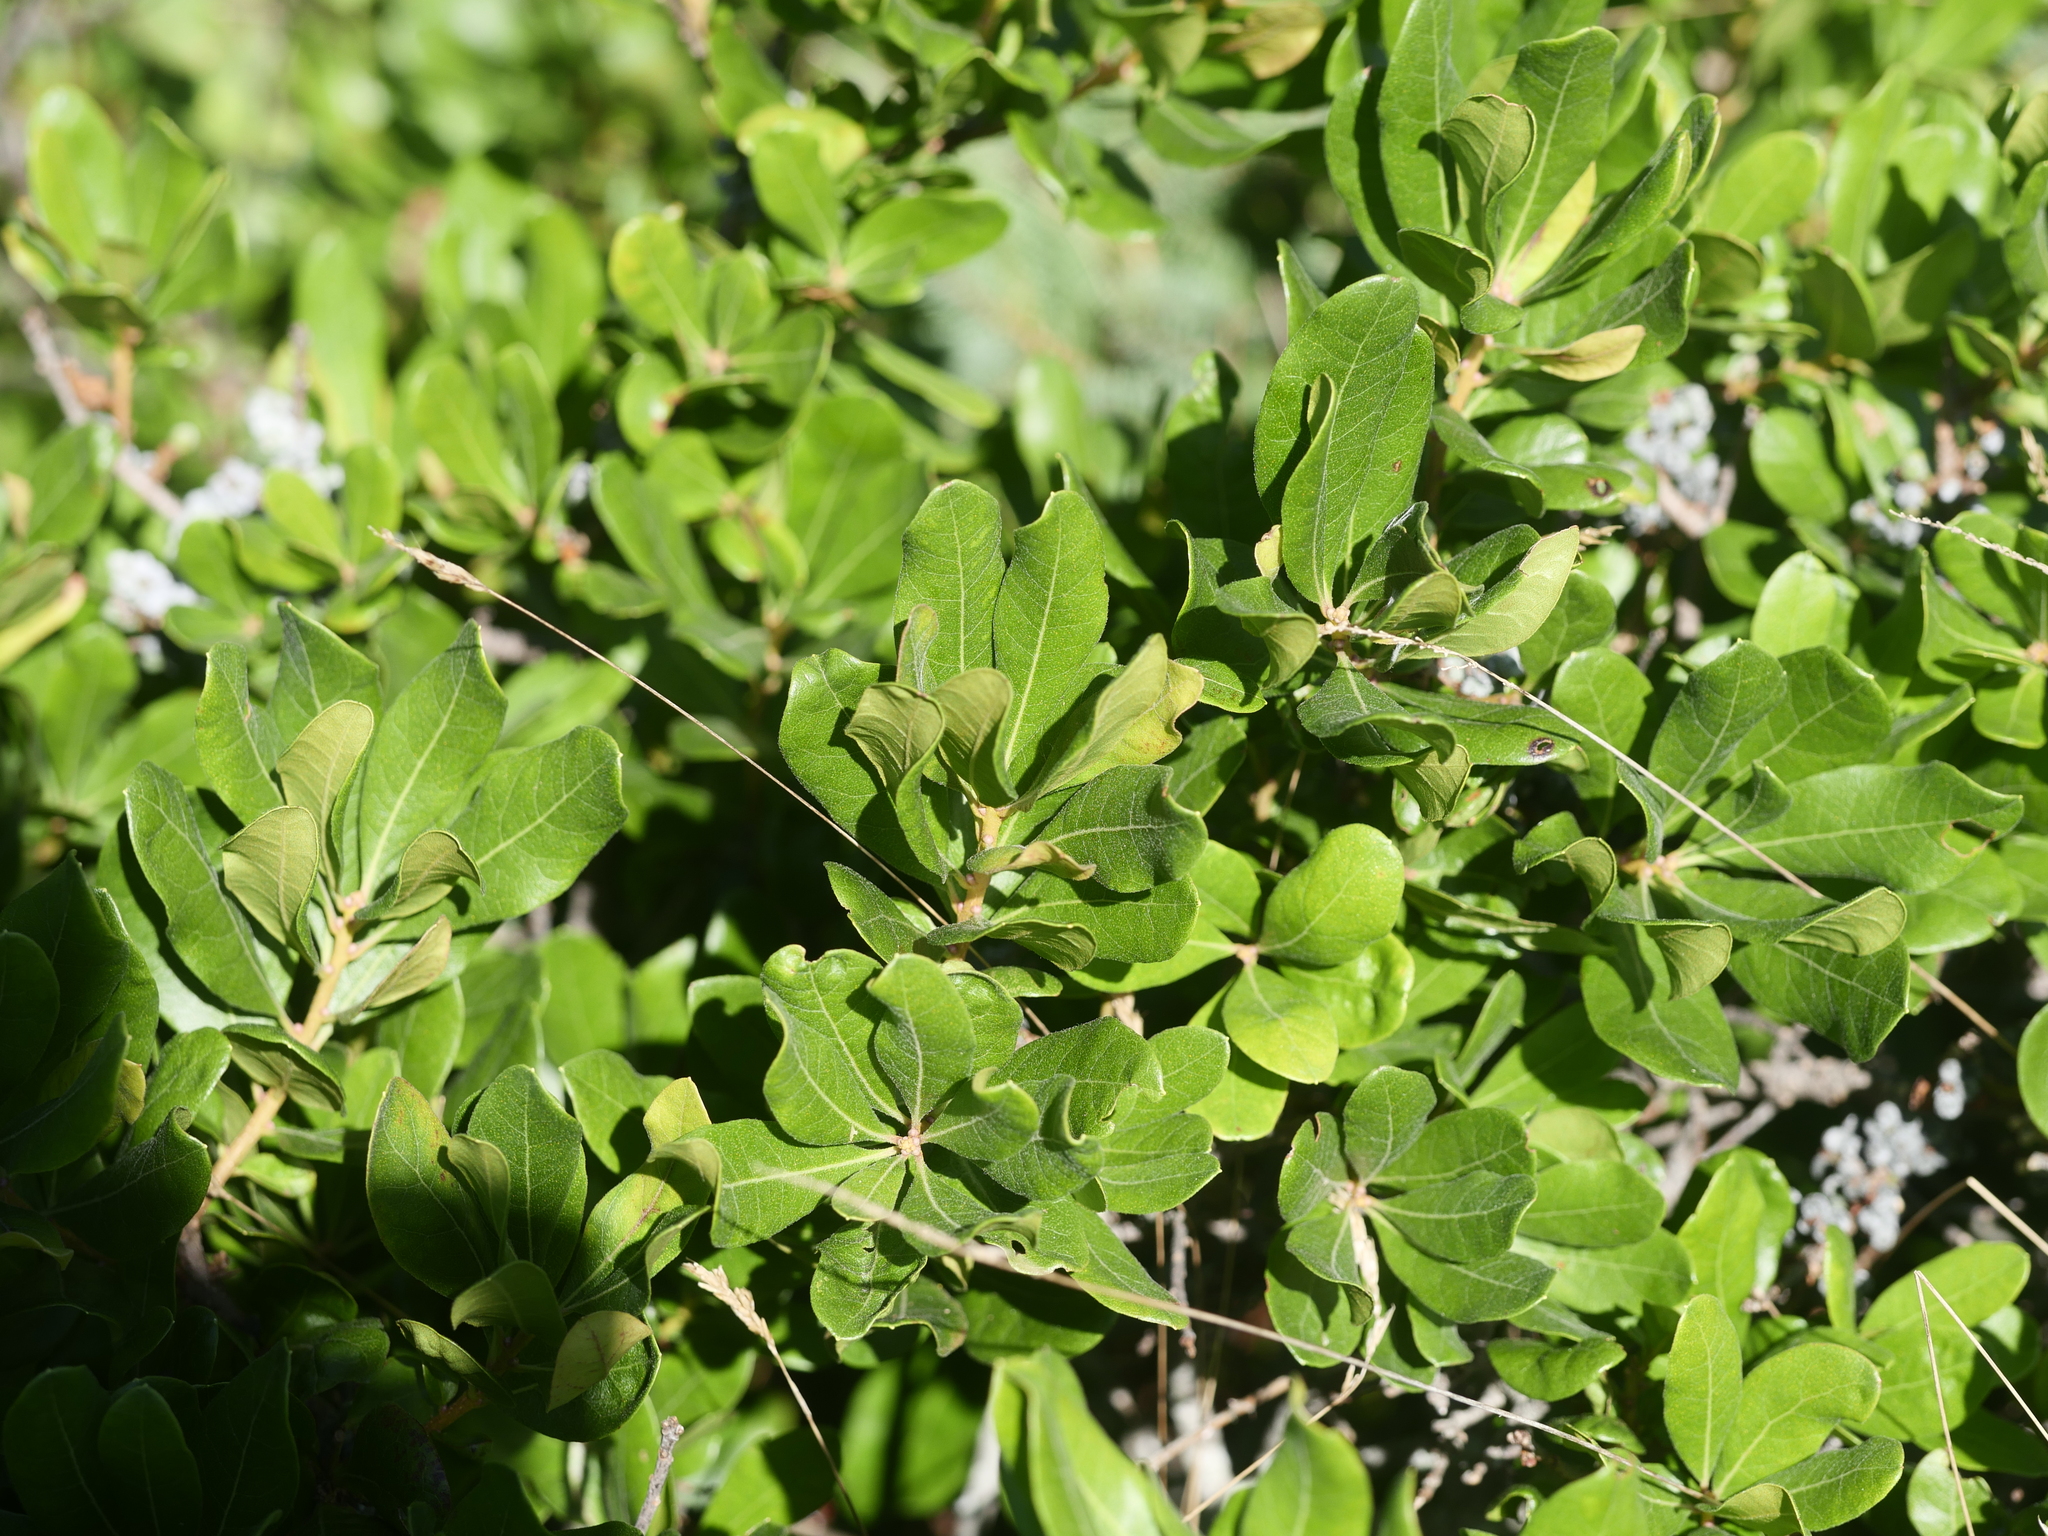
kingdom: Plantae
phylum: Tracheophyta
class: Magnoliopsida
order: Fagales
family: Myricaceae
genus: Morella
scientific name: Morella pensylvanica
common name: Northern bayberry
